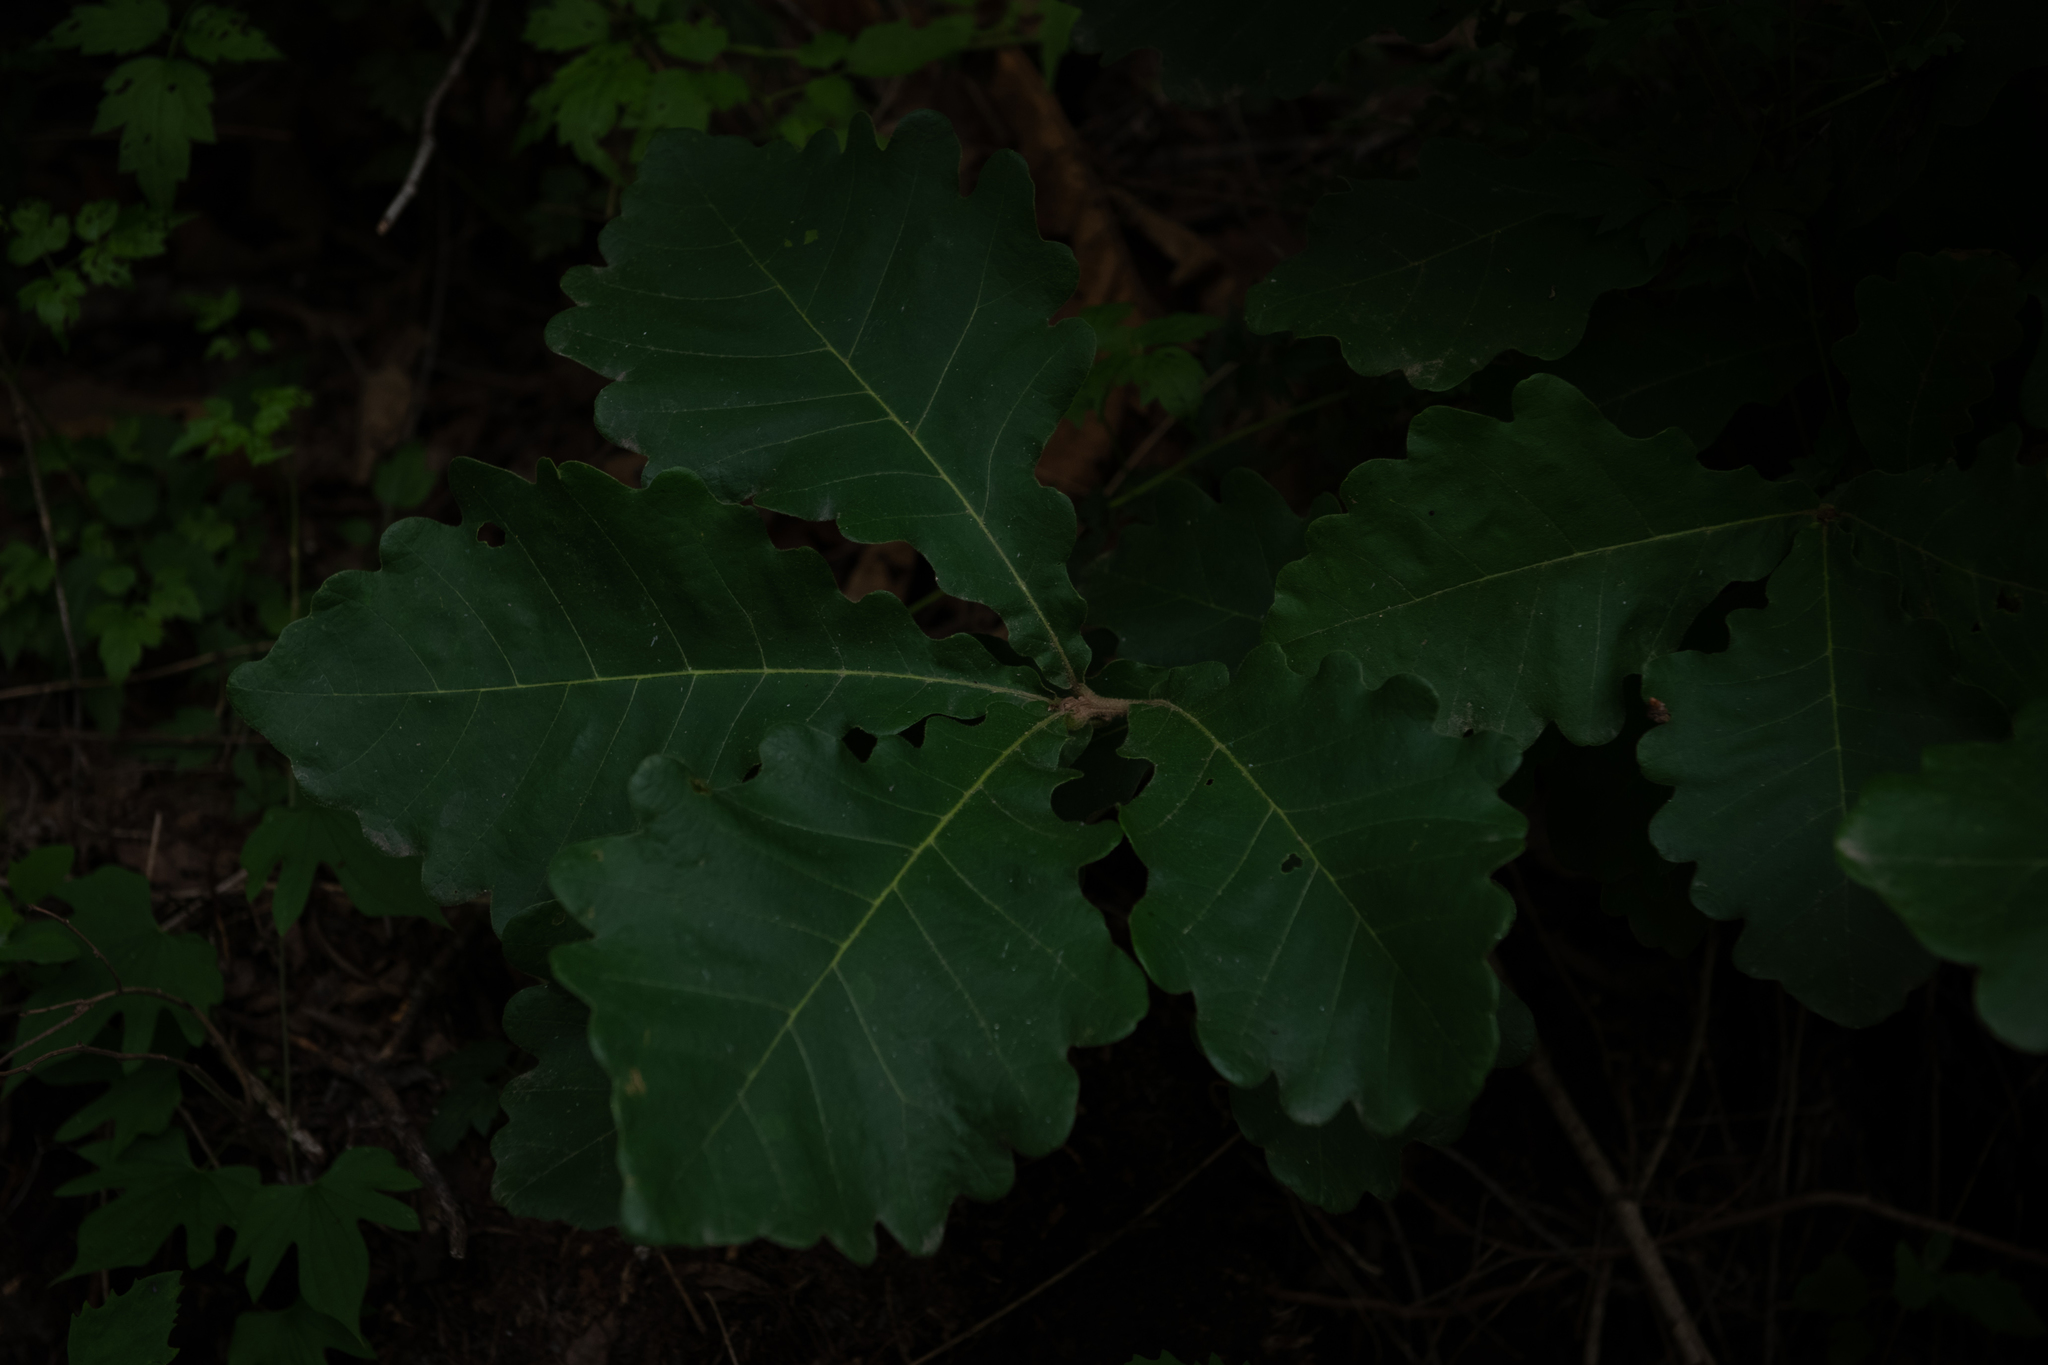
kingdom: Plantae
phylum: Tracheophyta
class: Magnoliopsida
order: Fagales
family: Fagaceae
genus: Quercus
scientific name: Quercus mongolica
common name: Mongolian oak
